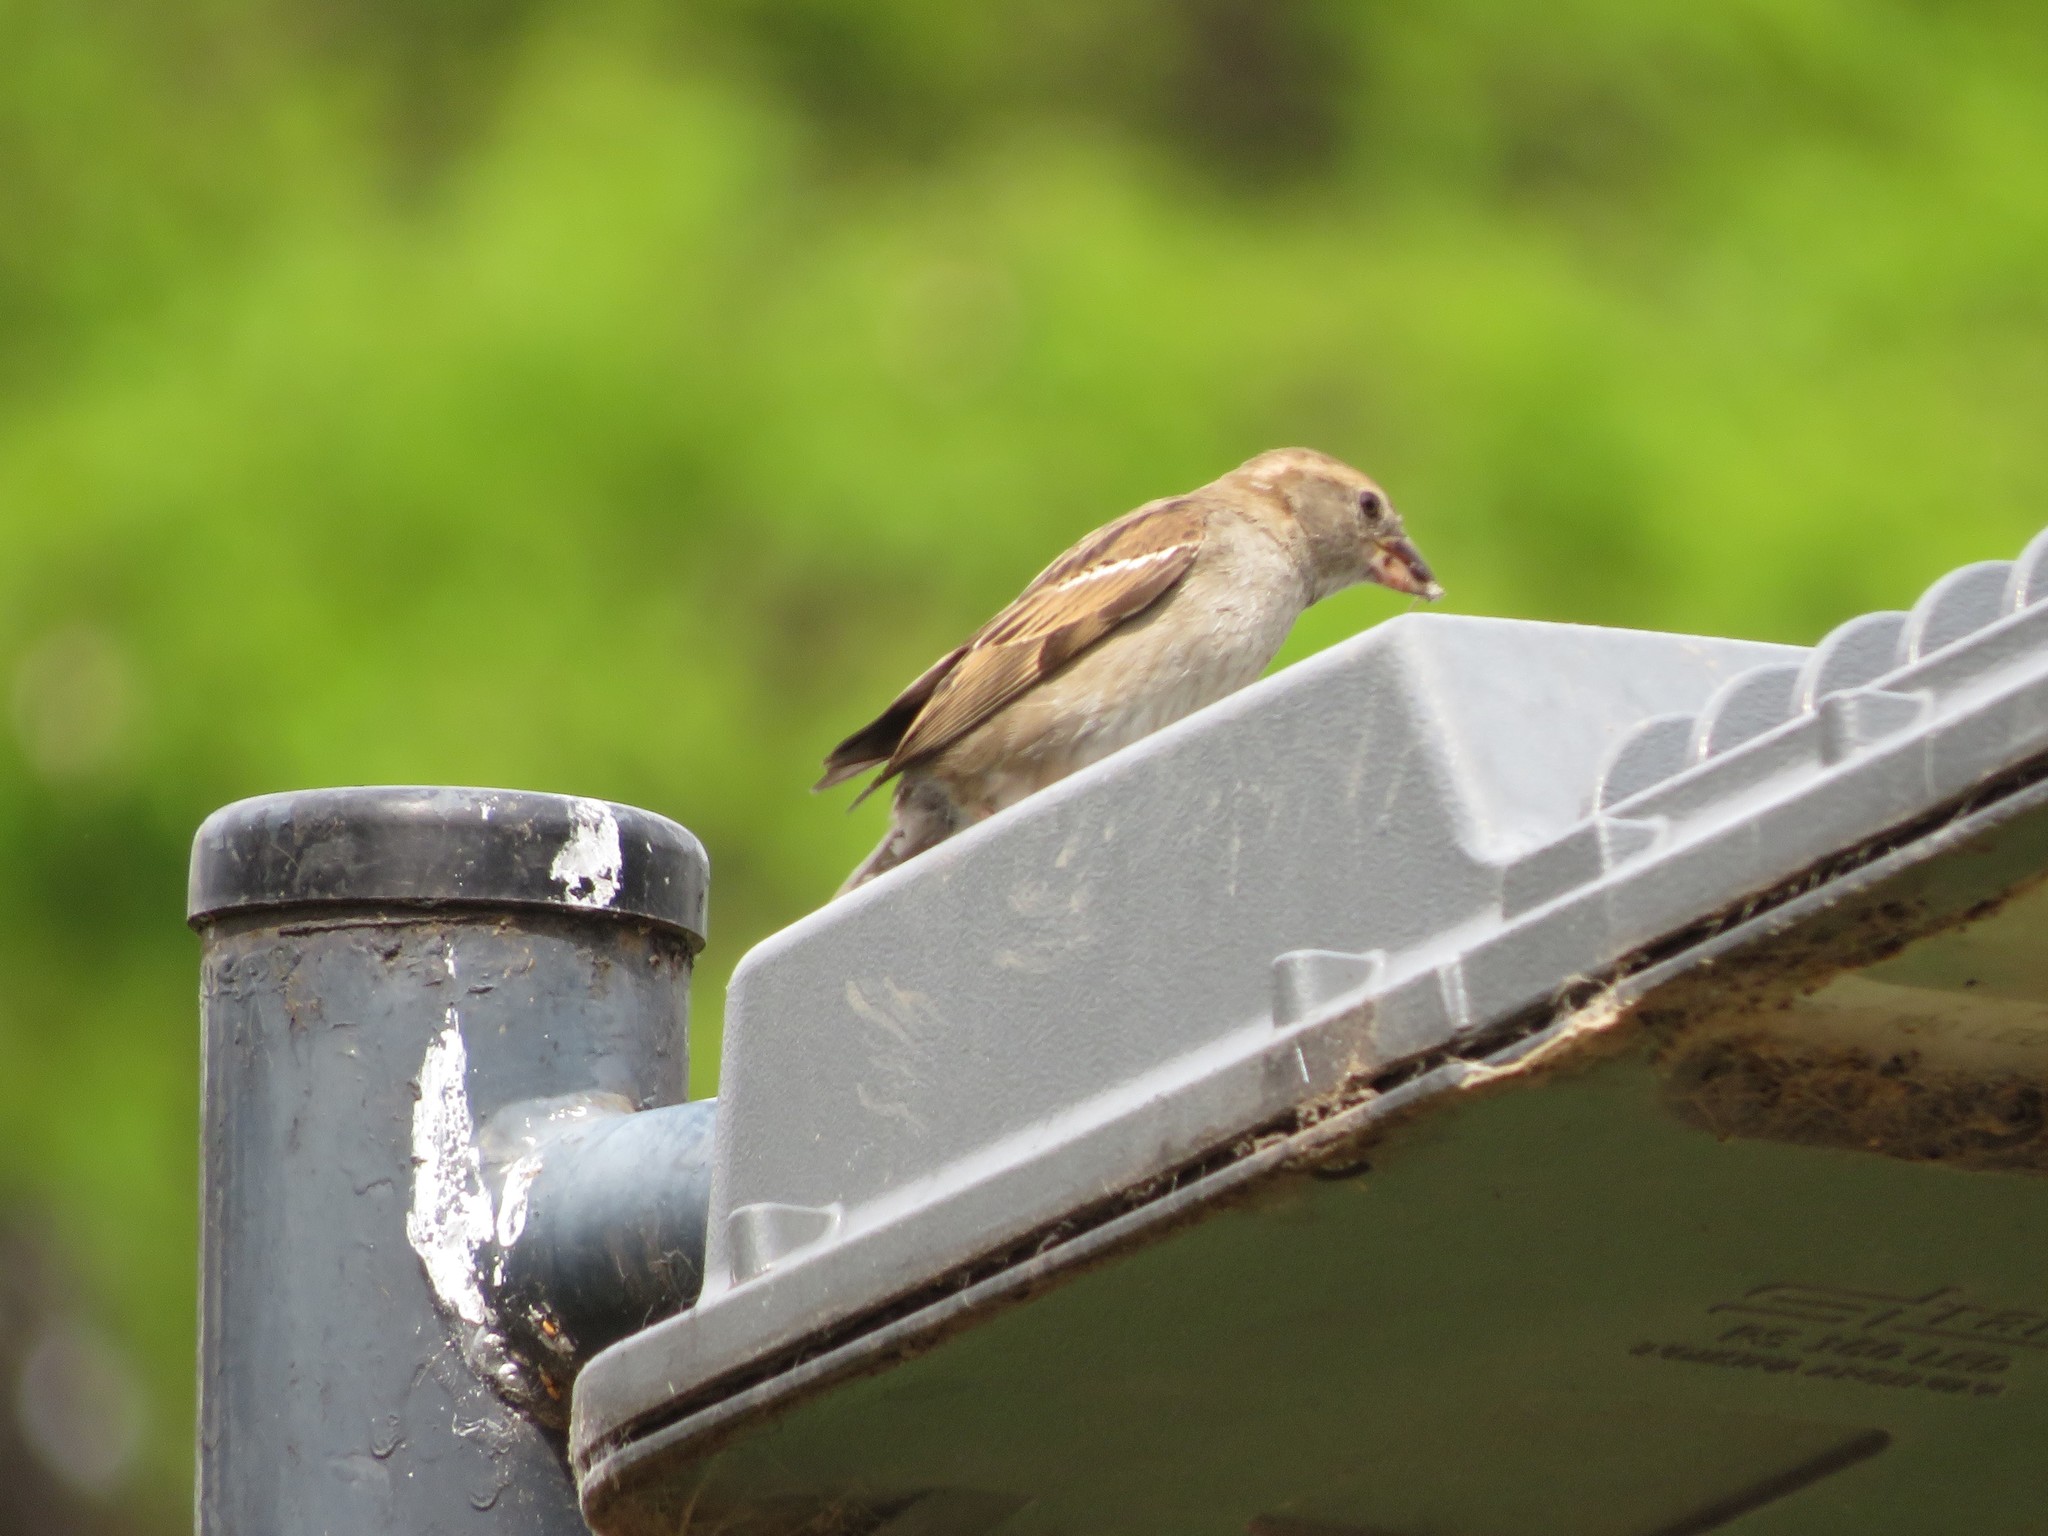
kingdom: Animalia
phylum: Chordata
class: Aves
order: Passeriformes
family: Passeridae
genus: Passer
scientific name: Passer domesticus
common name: House sparrow
